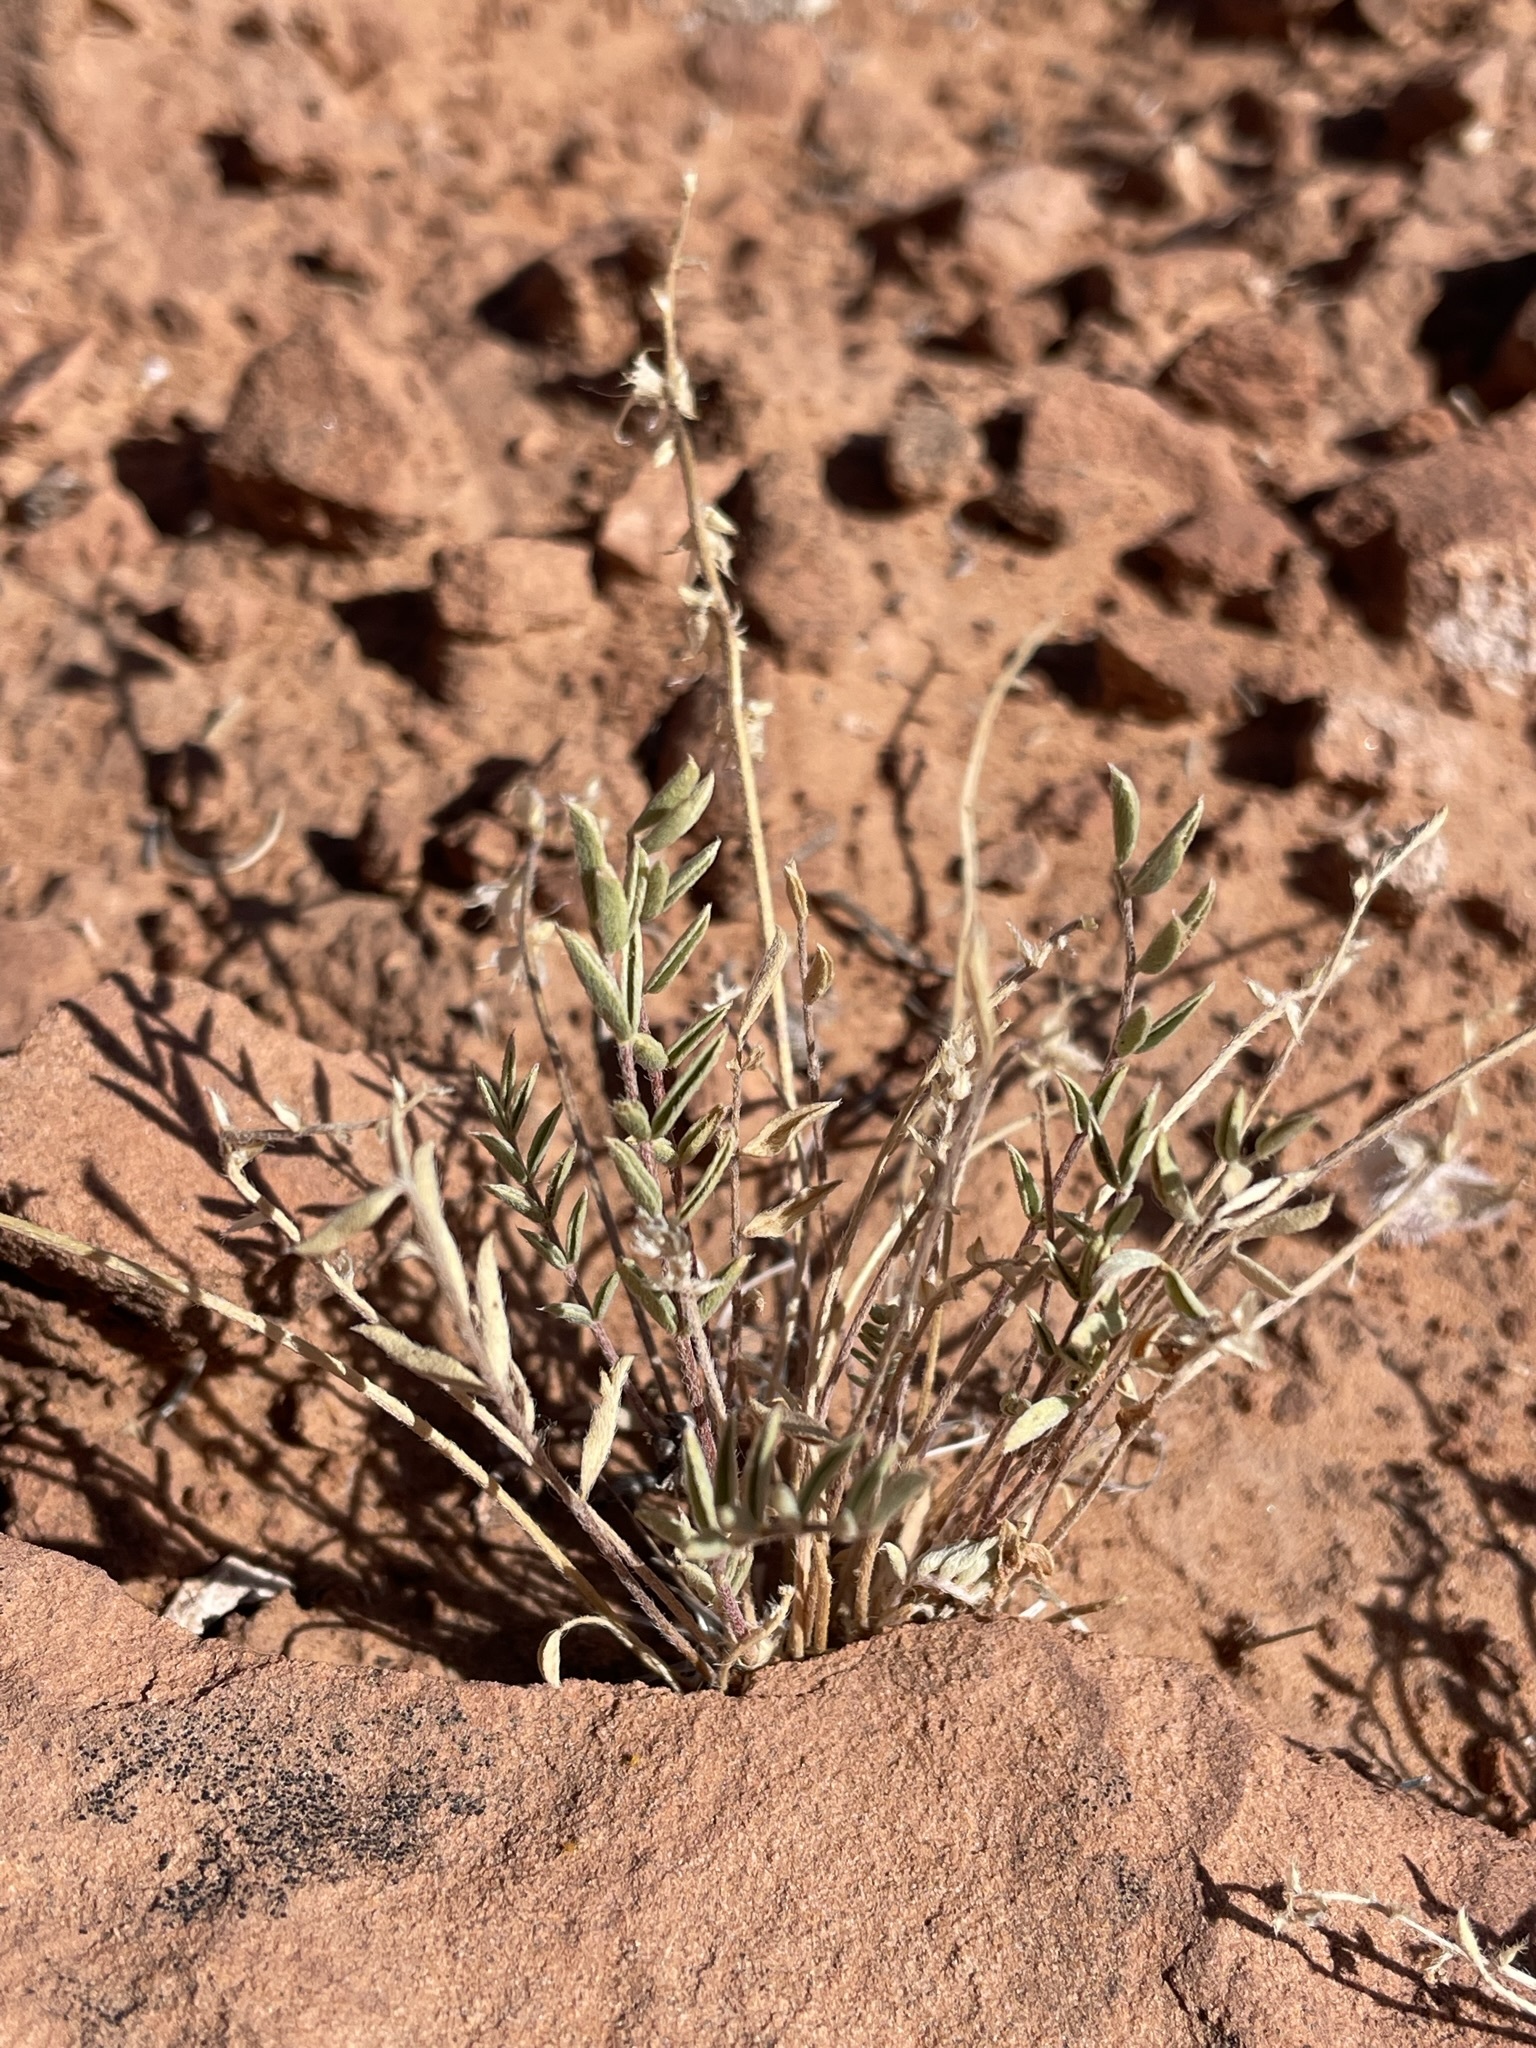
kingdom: Plantae
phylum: Tracheophyta
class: Magnoliopsida
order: Fabales
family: Fabaceae
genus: Astragalus
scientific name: Astragalus desperatus
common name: Rimrock milk-vetch
